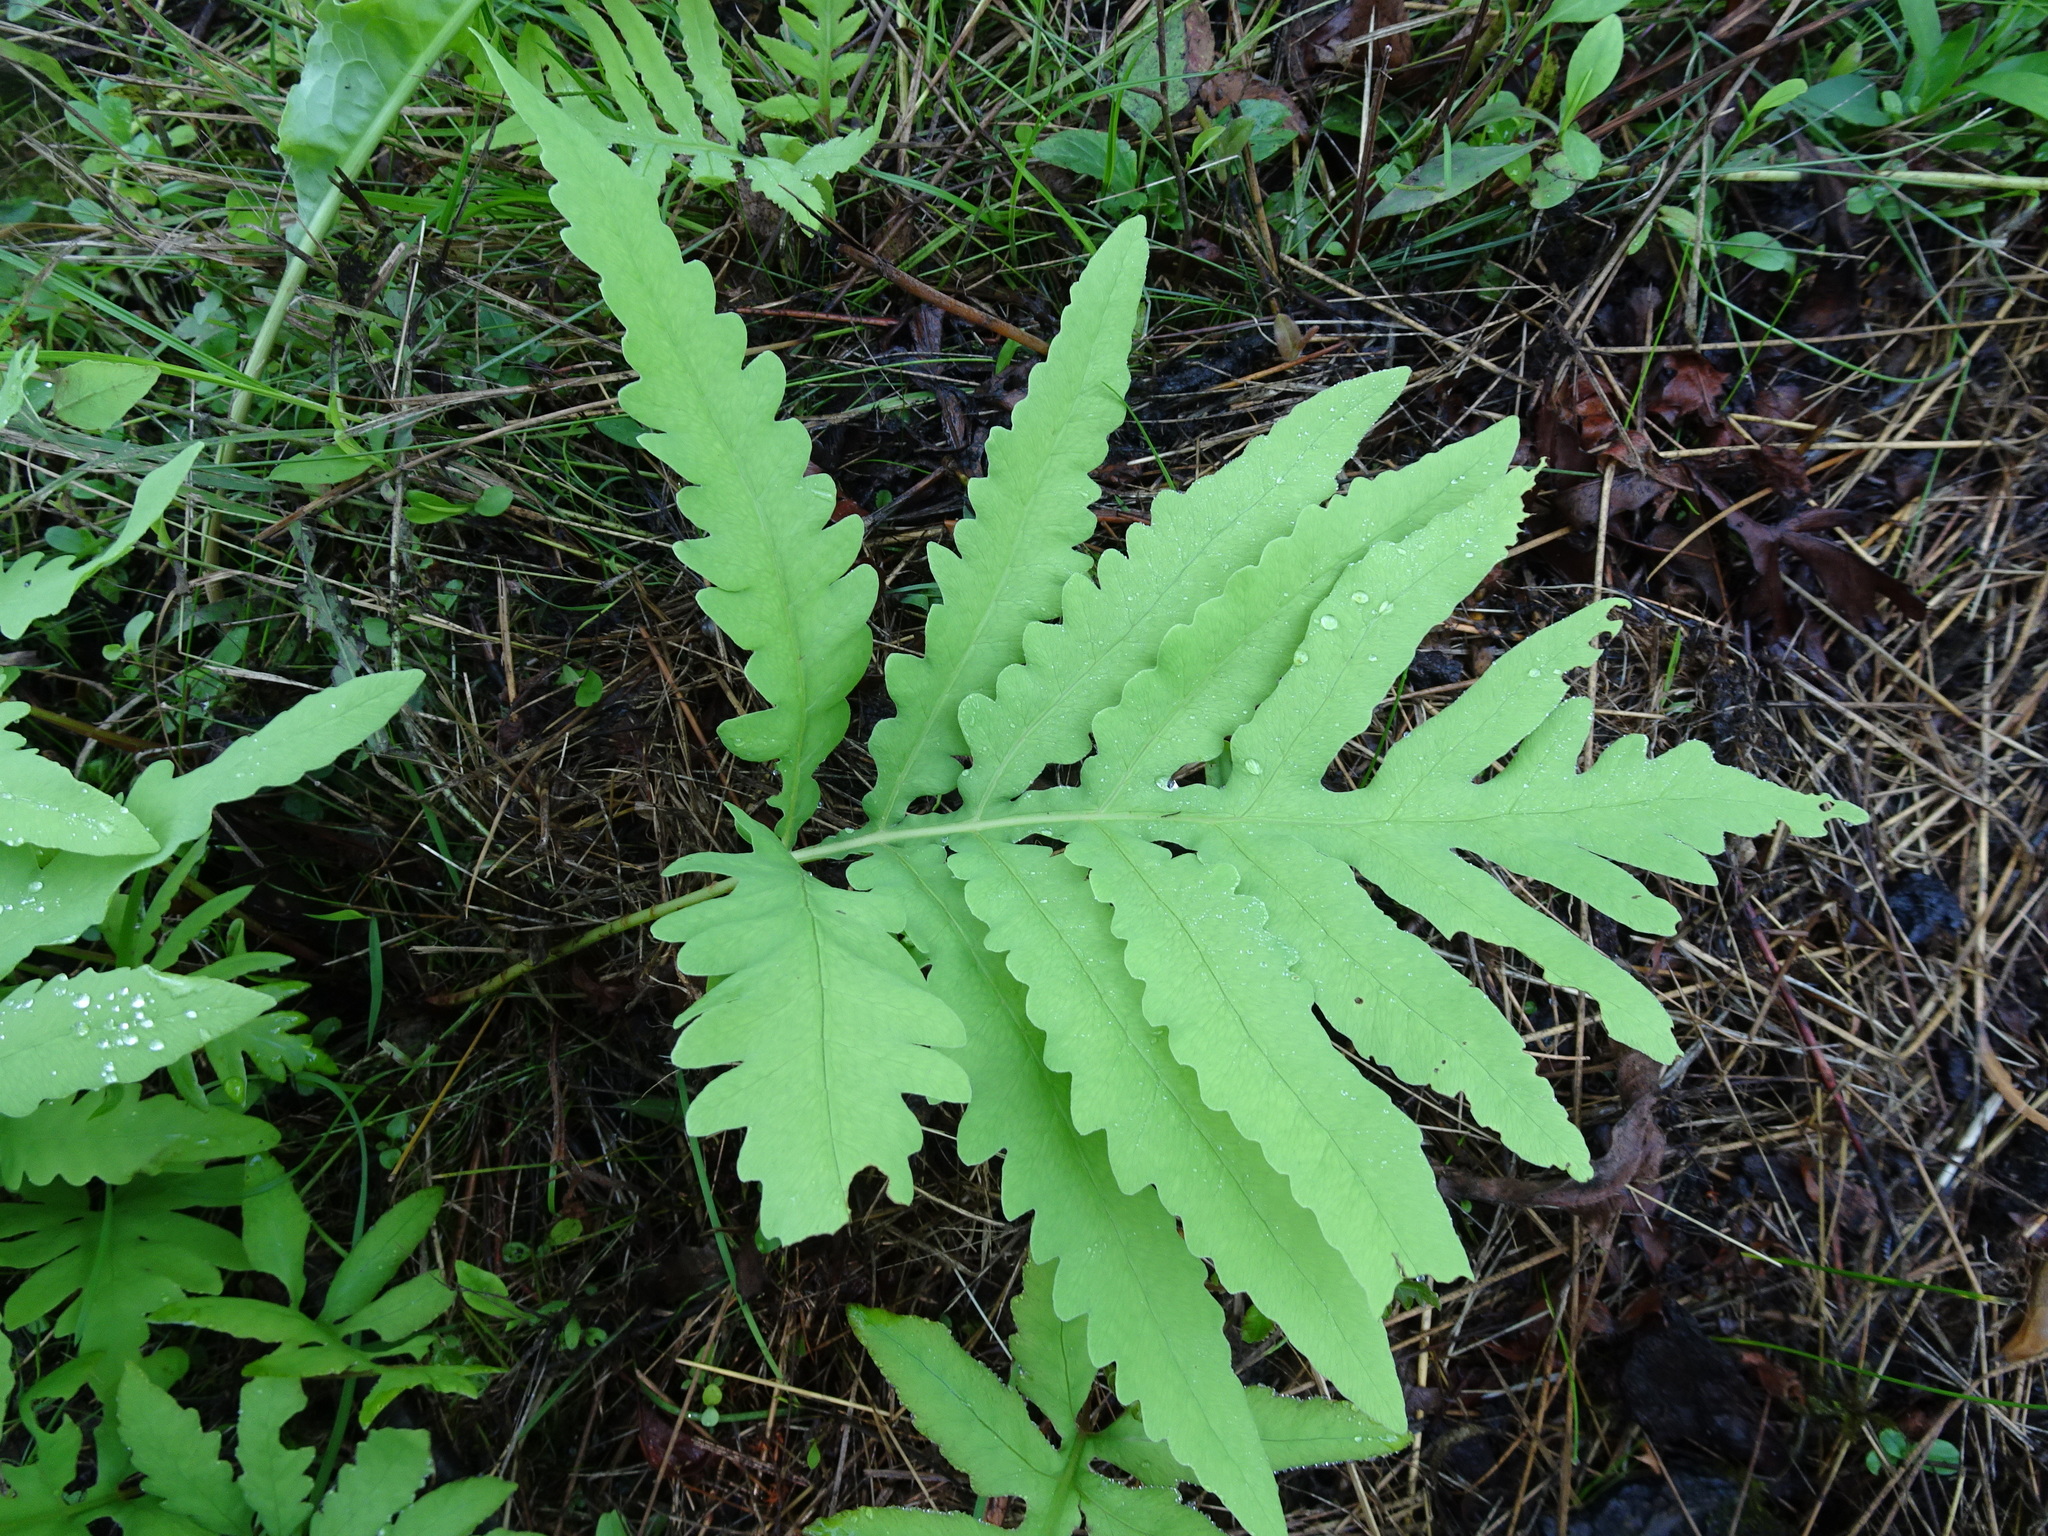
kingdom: Plantae
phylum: Tracheophyta
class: Polypodiopsida
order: Polypodiales
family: Onocleaceae
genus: Onoclea
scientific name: Onoclea sensibilis
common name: Sensitive fern
